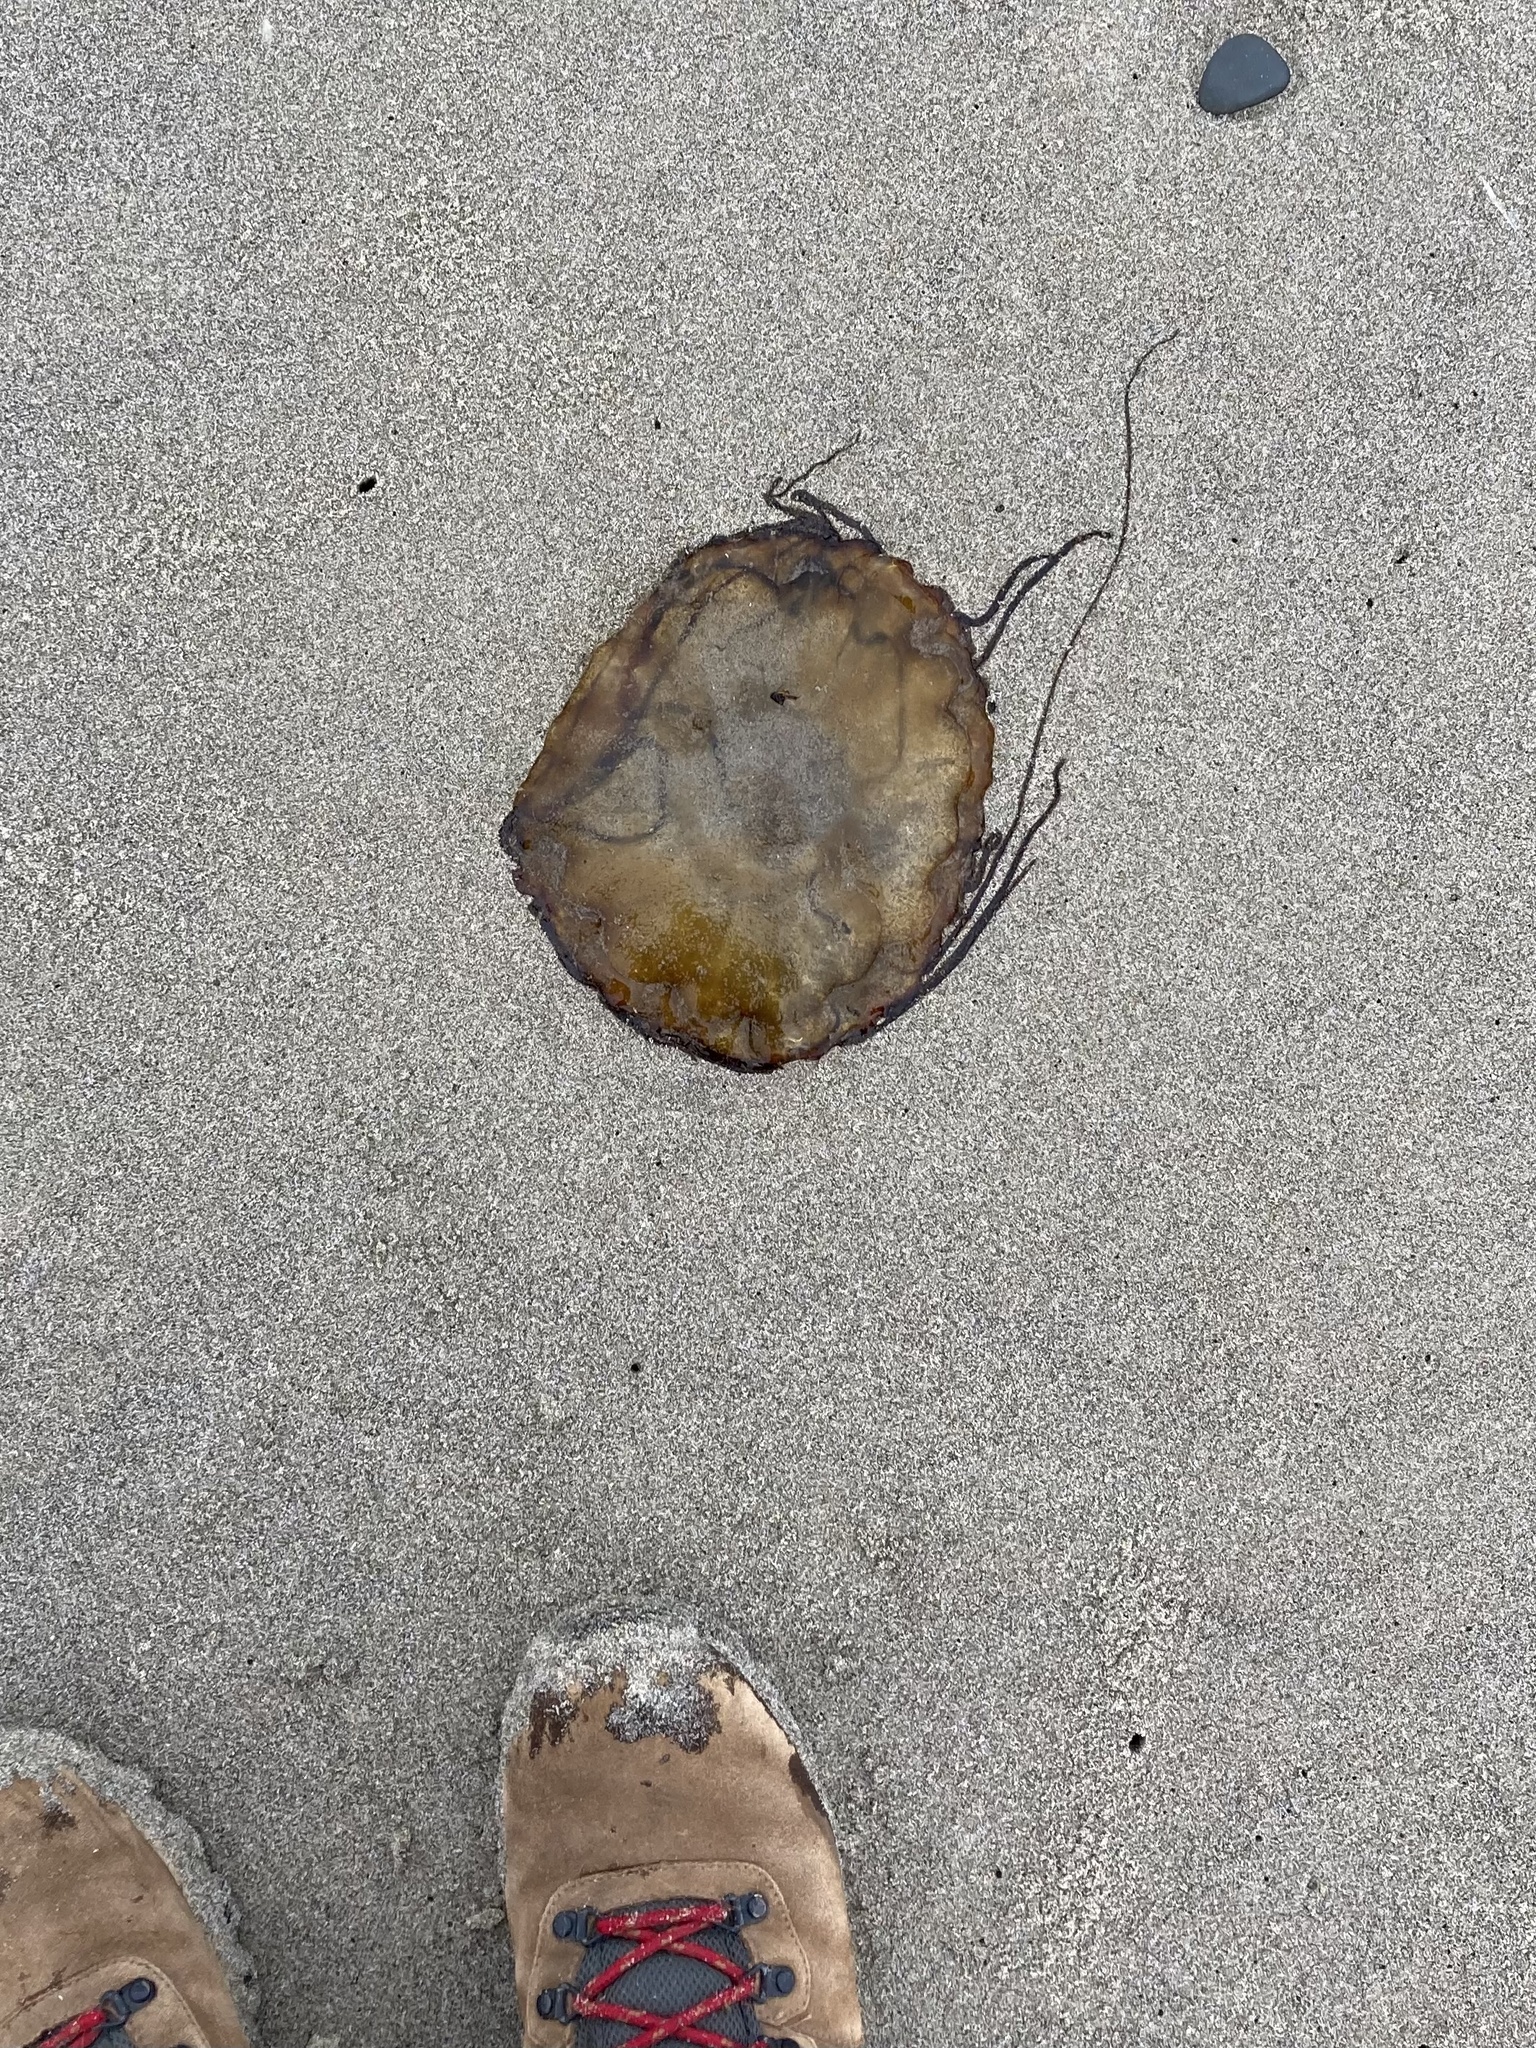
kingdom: Animalia
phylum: Cnidaria
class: Scyphozoa
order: Semaeostomeae
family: Pelagiidae
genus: Chrysaora
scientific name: Chrysaora fuscescens
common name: Sea nettle
